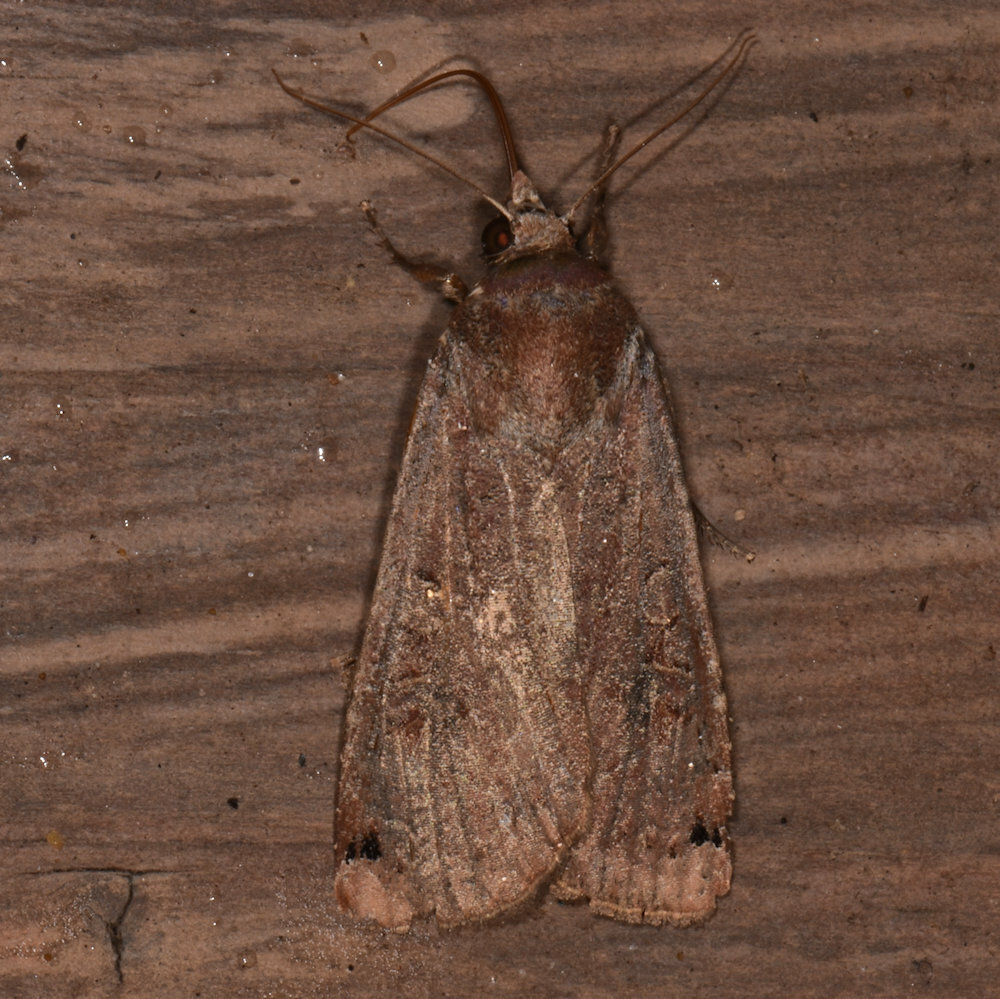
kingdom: Animalia
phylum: Arthropoda
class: Insecta
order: Lepidoptera
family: Noctuidae
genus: Noctua
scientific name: Noctua pronuba
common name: Large yellow underwing
